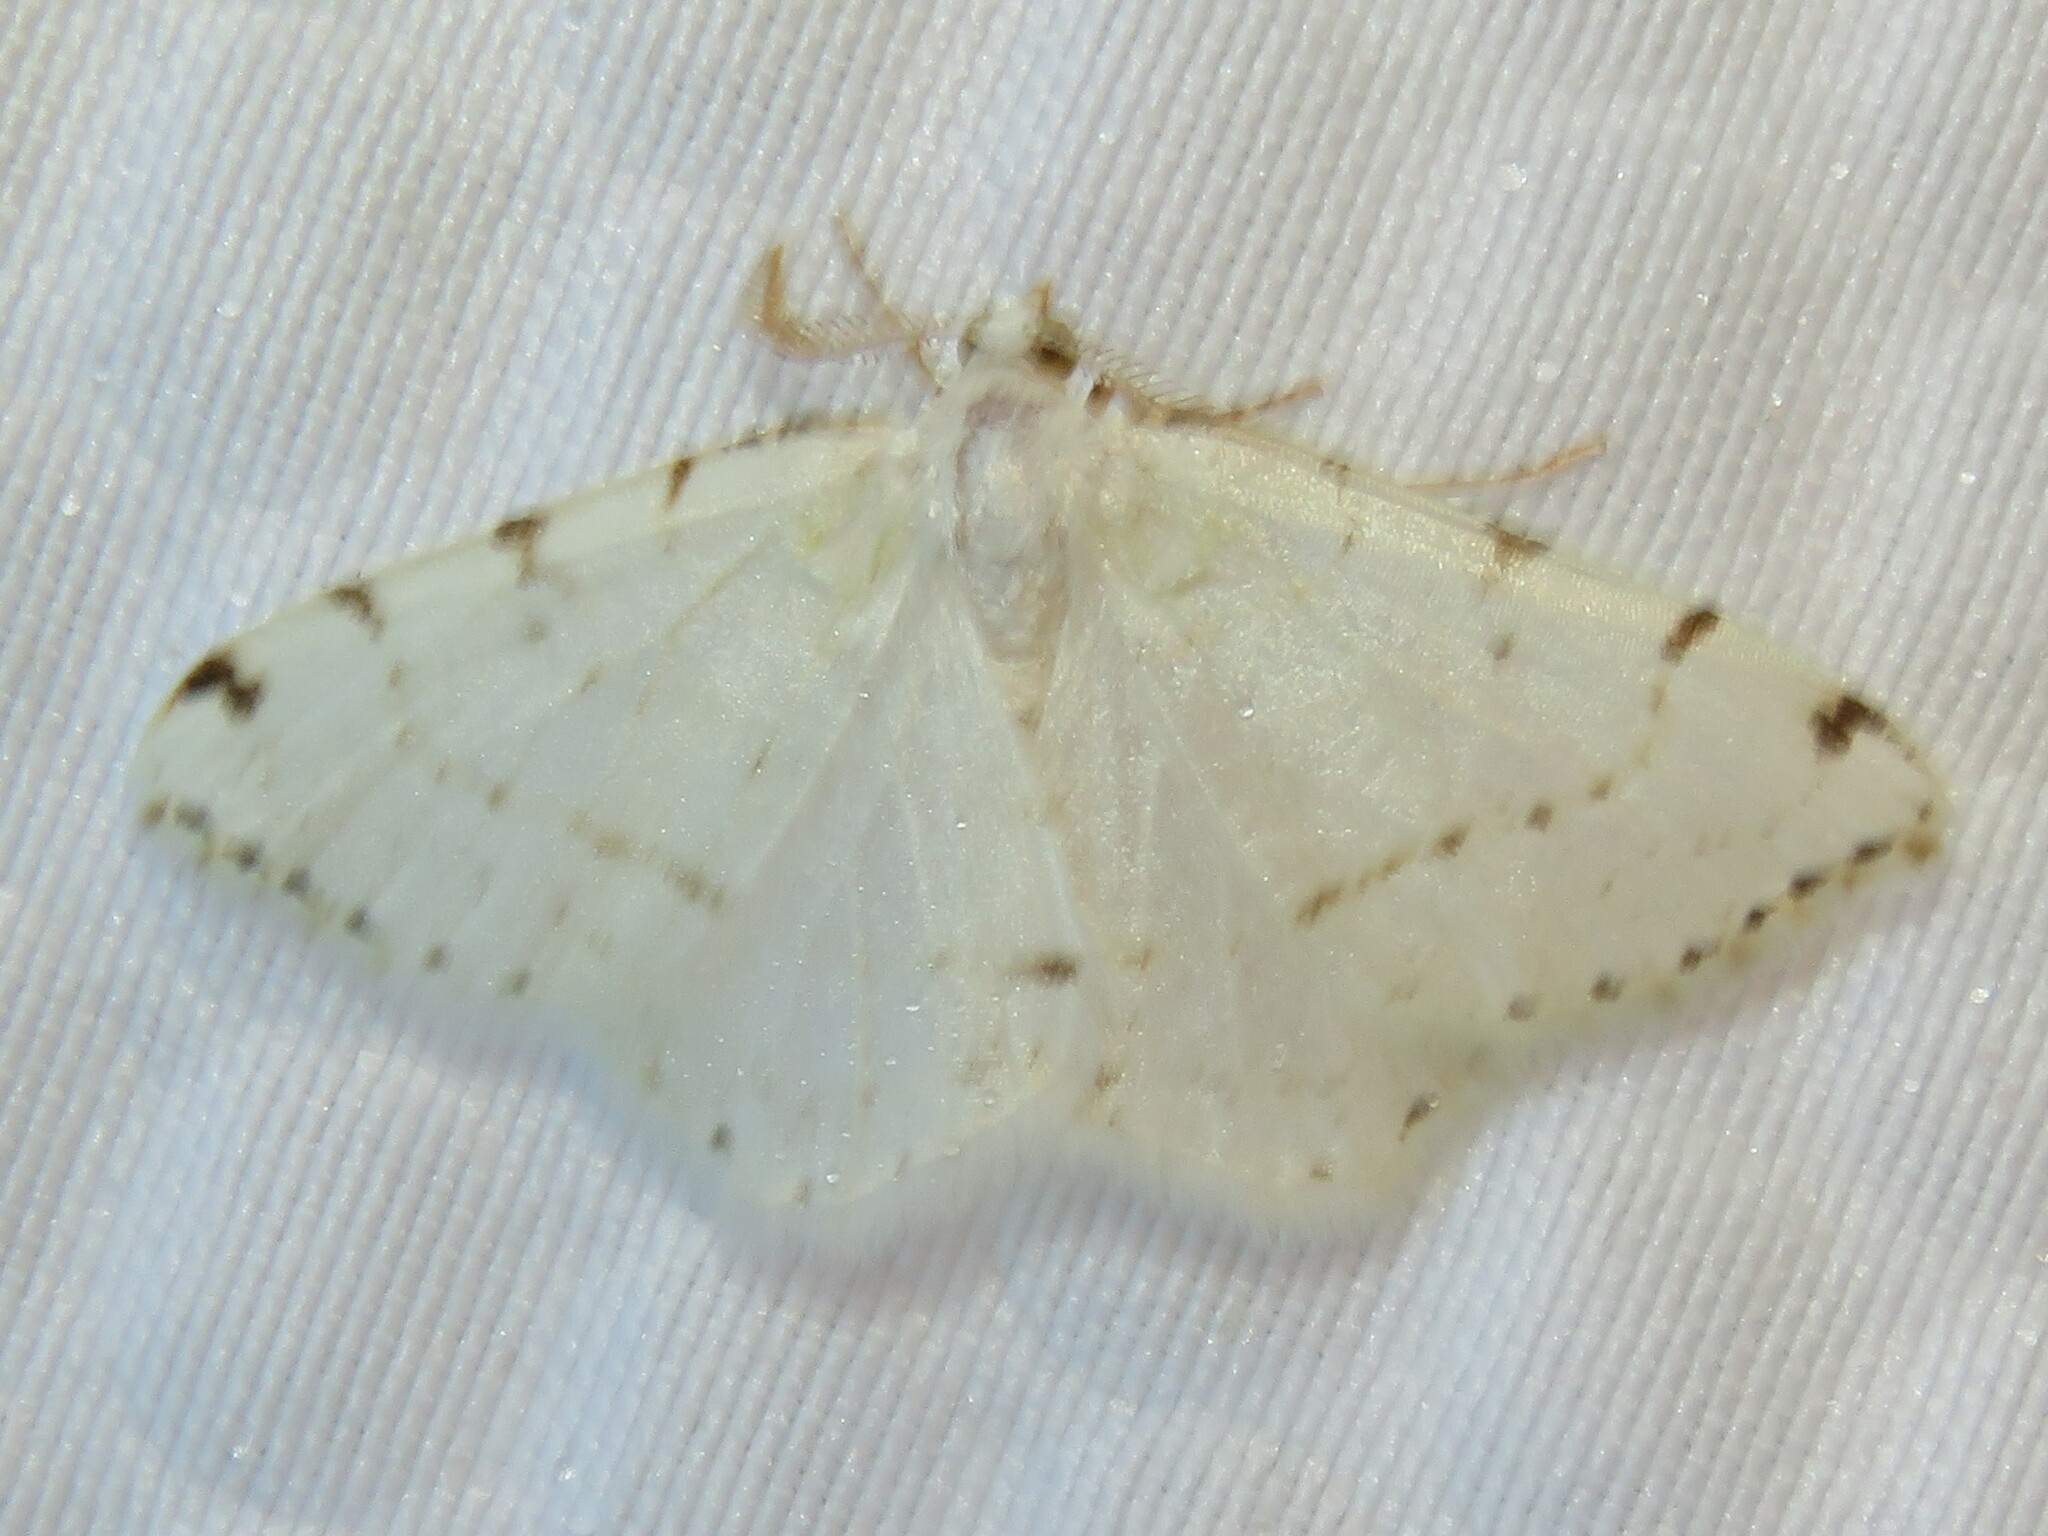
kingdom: Animalia
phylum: Arthropoda
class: Insecta
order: Lepidoptera
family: Geometridae
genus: Macaria
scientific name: Macaria pustularia
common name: Lesser maple spanworm moth
